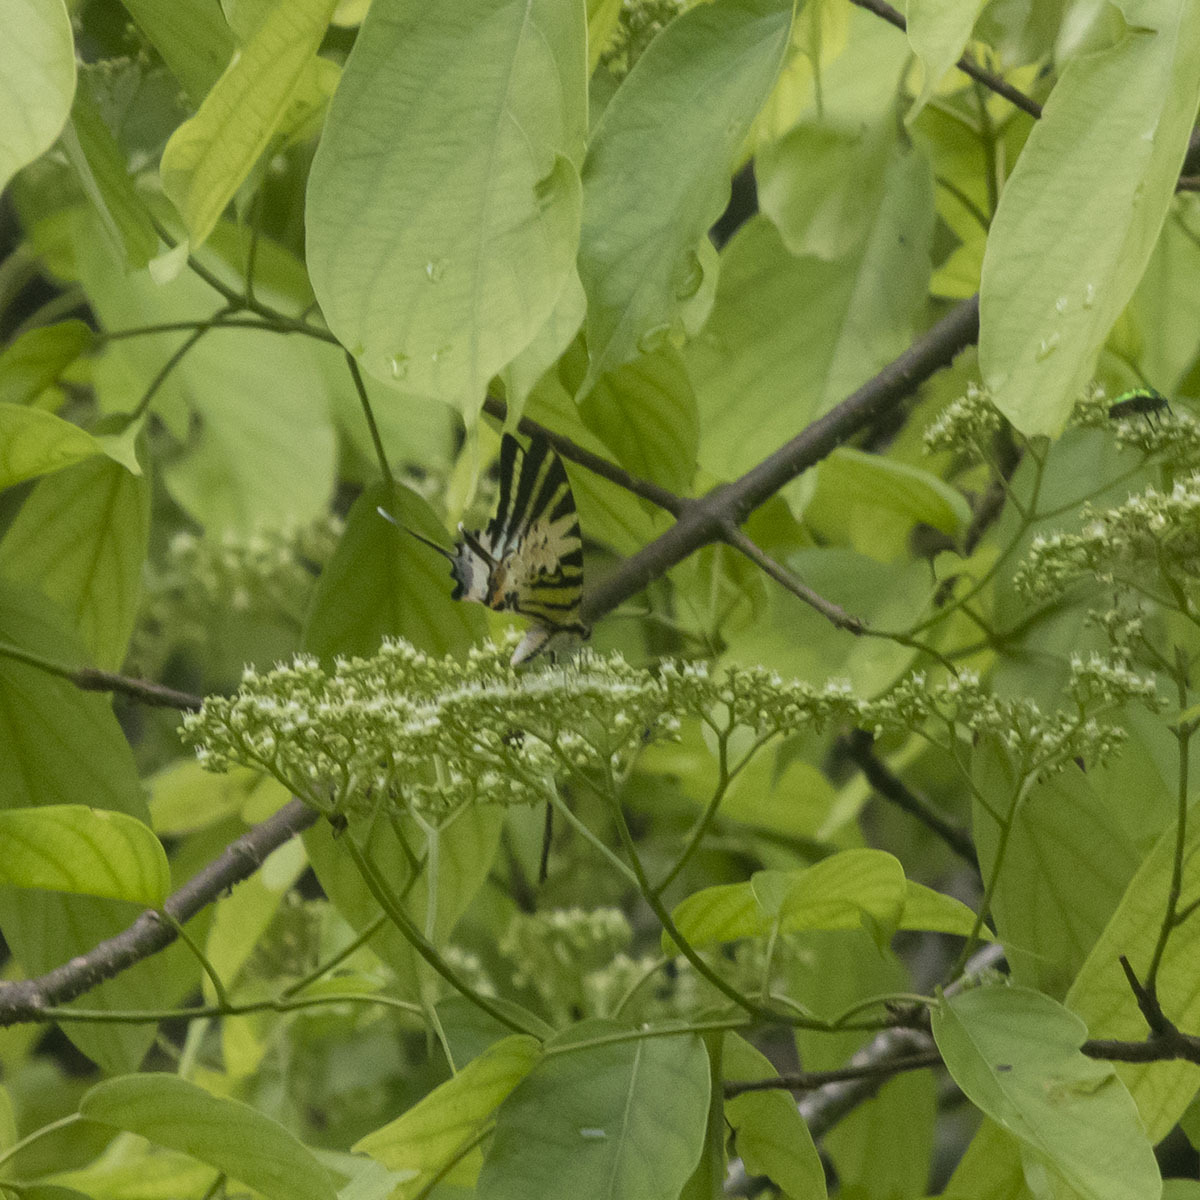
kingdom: Animalia
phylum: Arthropoda
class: Insecta
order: Lepidoptera
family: Papilionidae
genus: Graphium
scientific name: Graphium antiphates
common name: Fivebar swordtail
